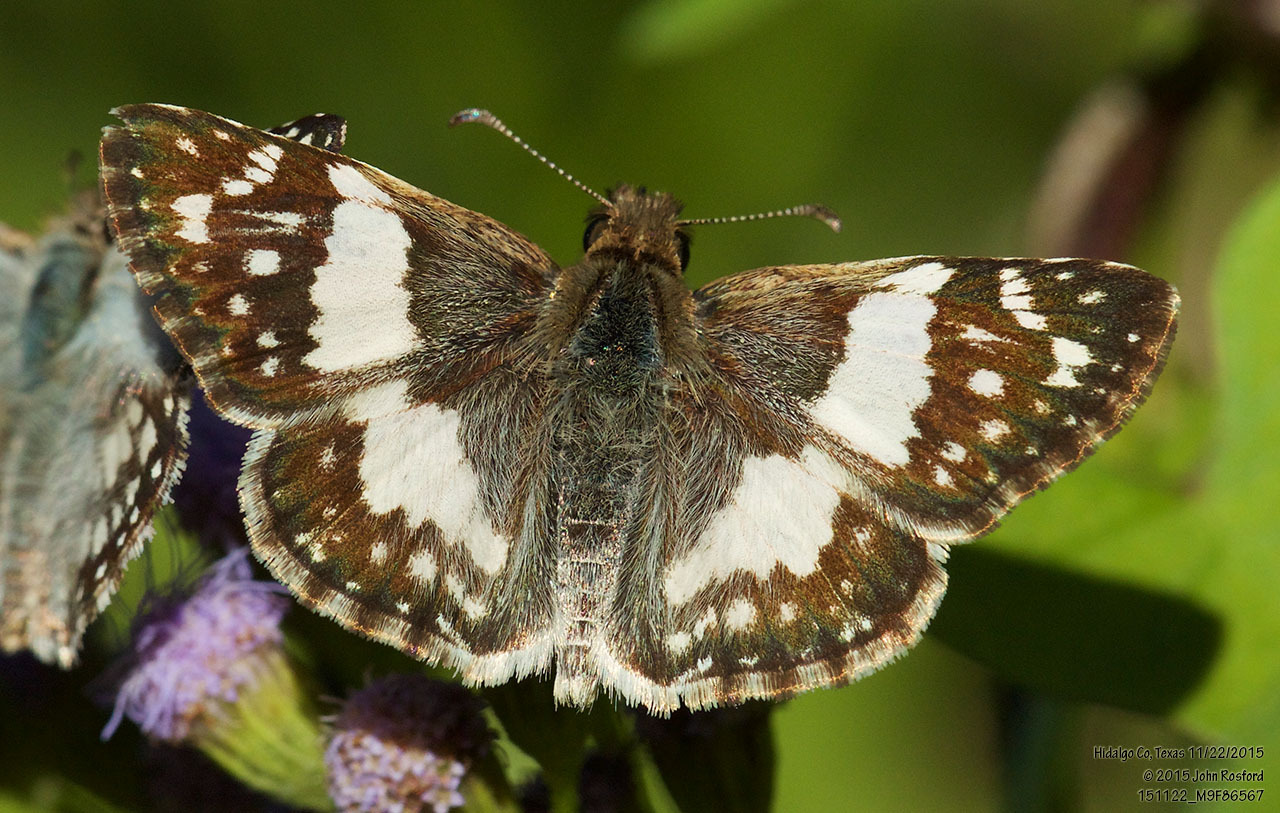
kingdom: Animalia
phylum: Arthropoda
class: Insecta
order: Lepidoptera
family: Hesperiidae
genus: Heliopyrgus
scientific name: Heliopyrgus domicella
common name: Erichson's white skipper
